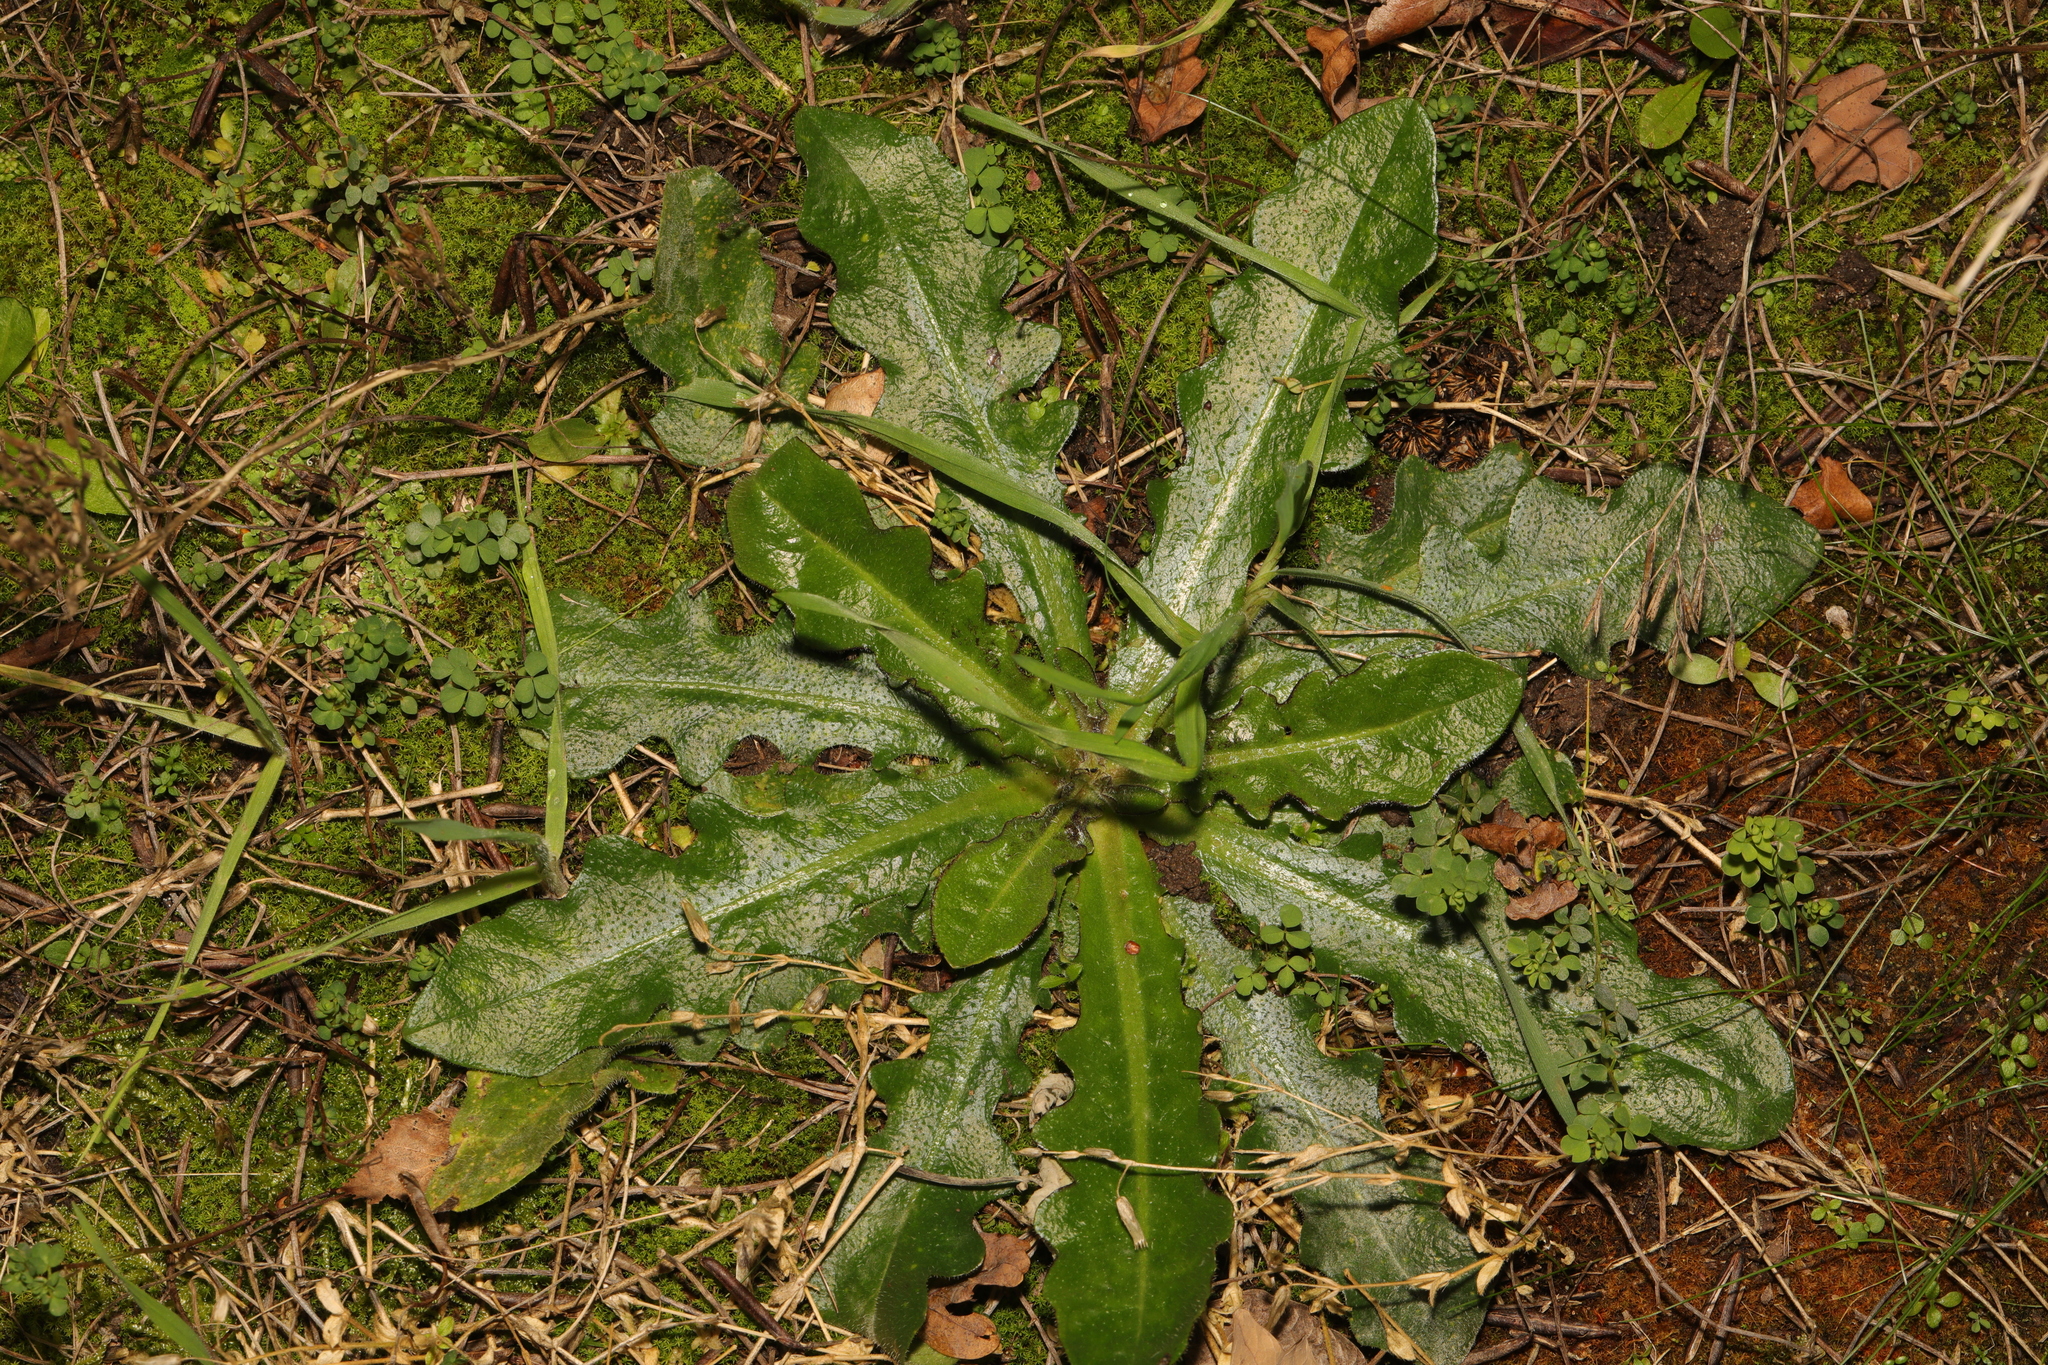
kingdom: Plantae
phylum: Tracheophyta
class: Magnoliopsida
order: Asterales
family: Asteraceae
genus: Hypochaeris
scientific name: Hypochaeris radicata
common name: Flatweed
